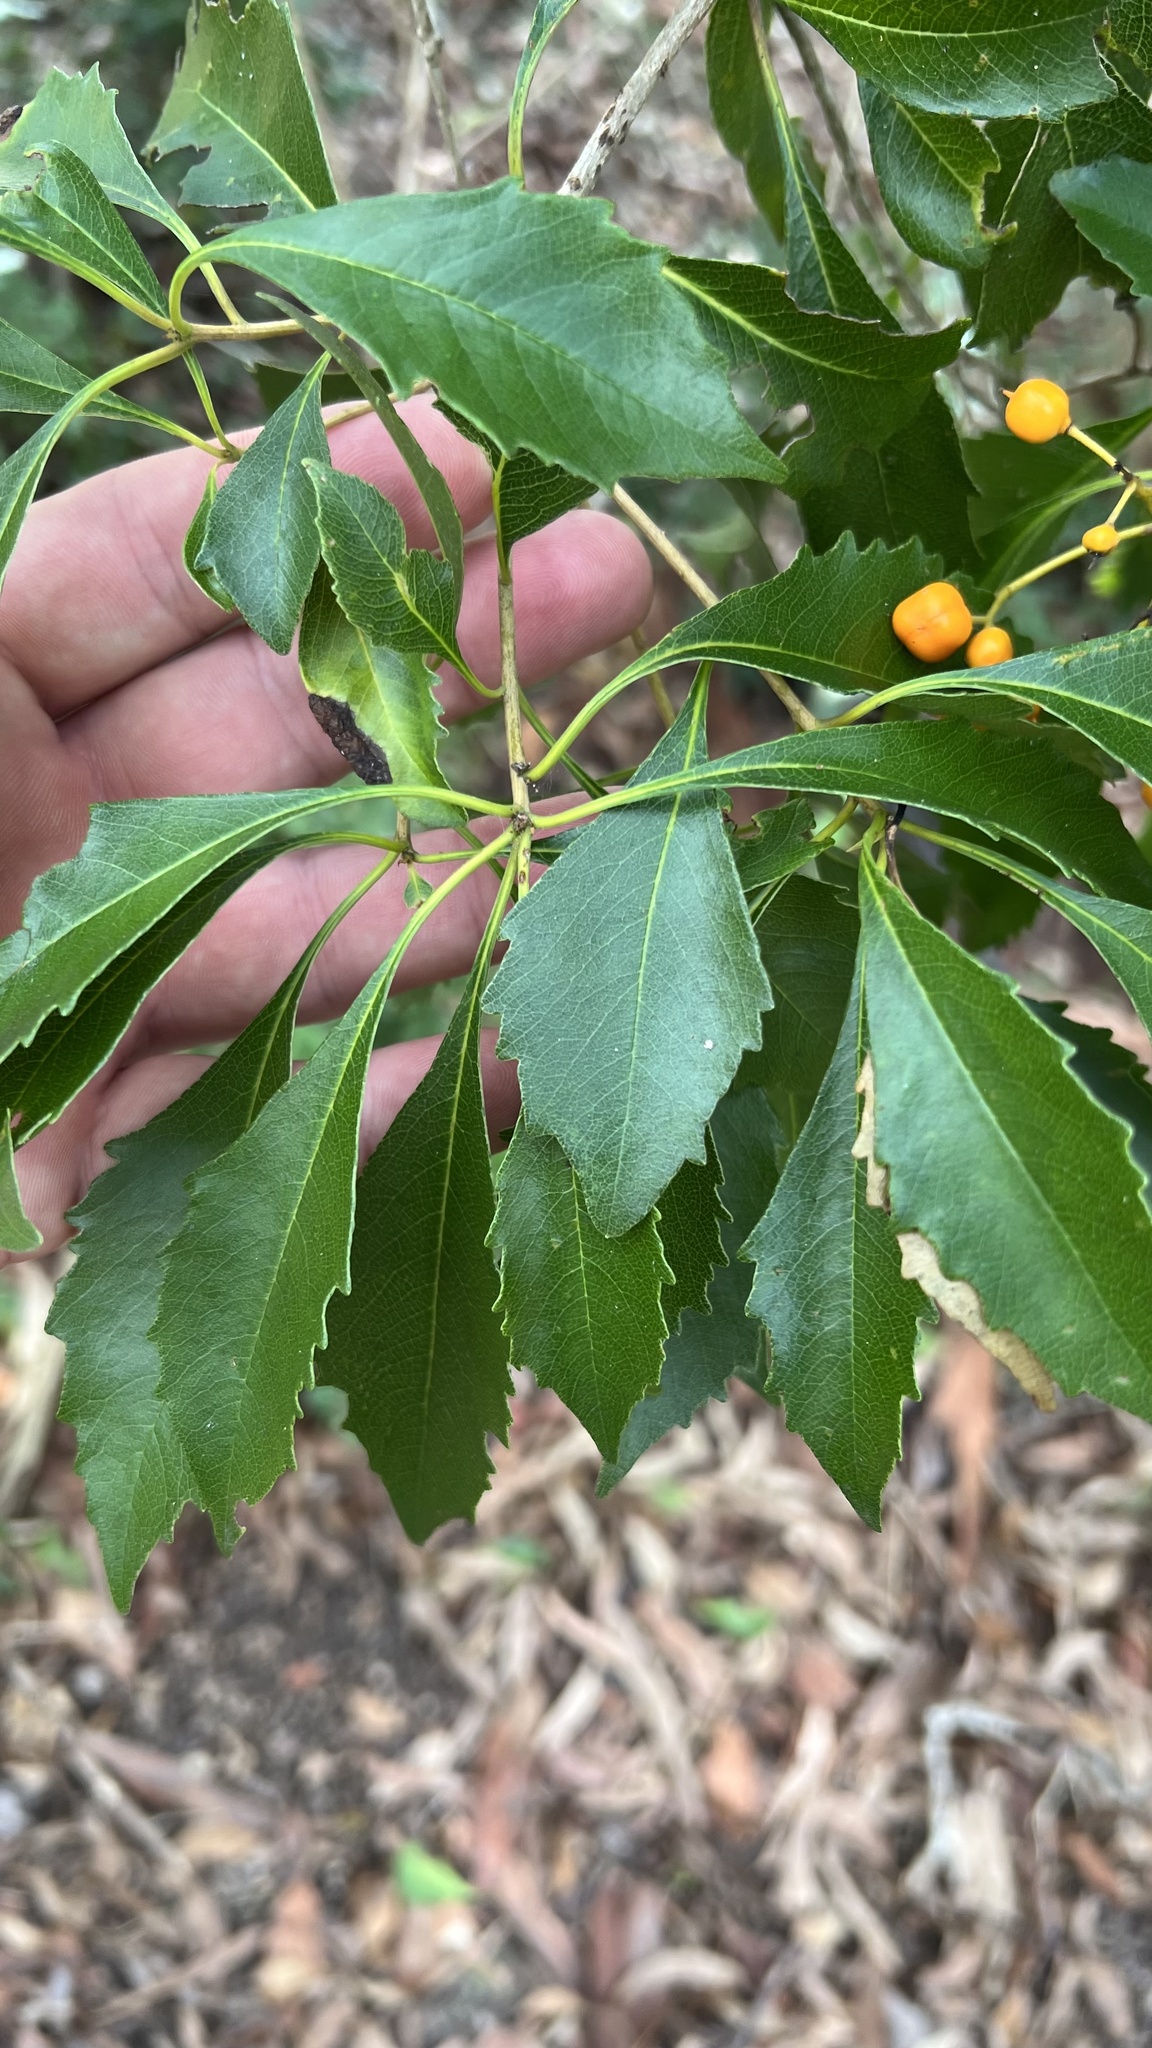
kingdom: Plantae
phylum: Tracheophyta
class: Magnoliopsida
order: Apiales
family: Pittosporaceae
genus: Auranticarpa
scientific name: Auranticarpa rhombifolia
